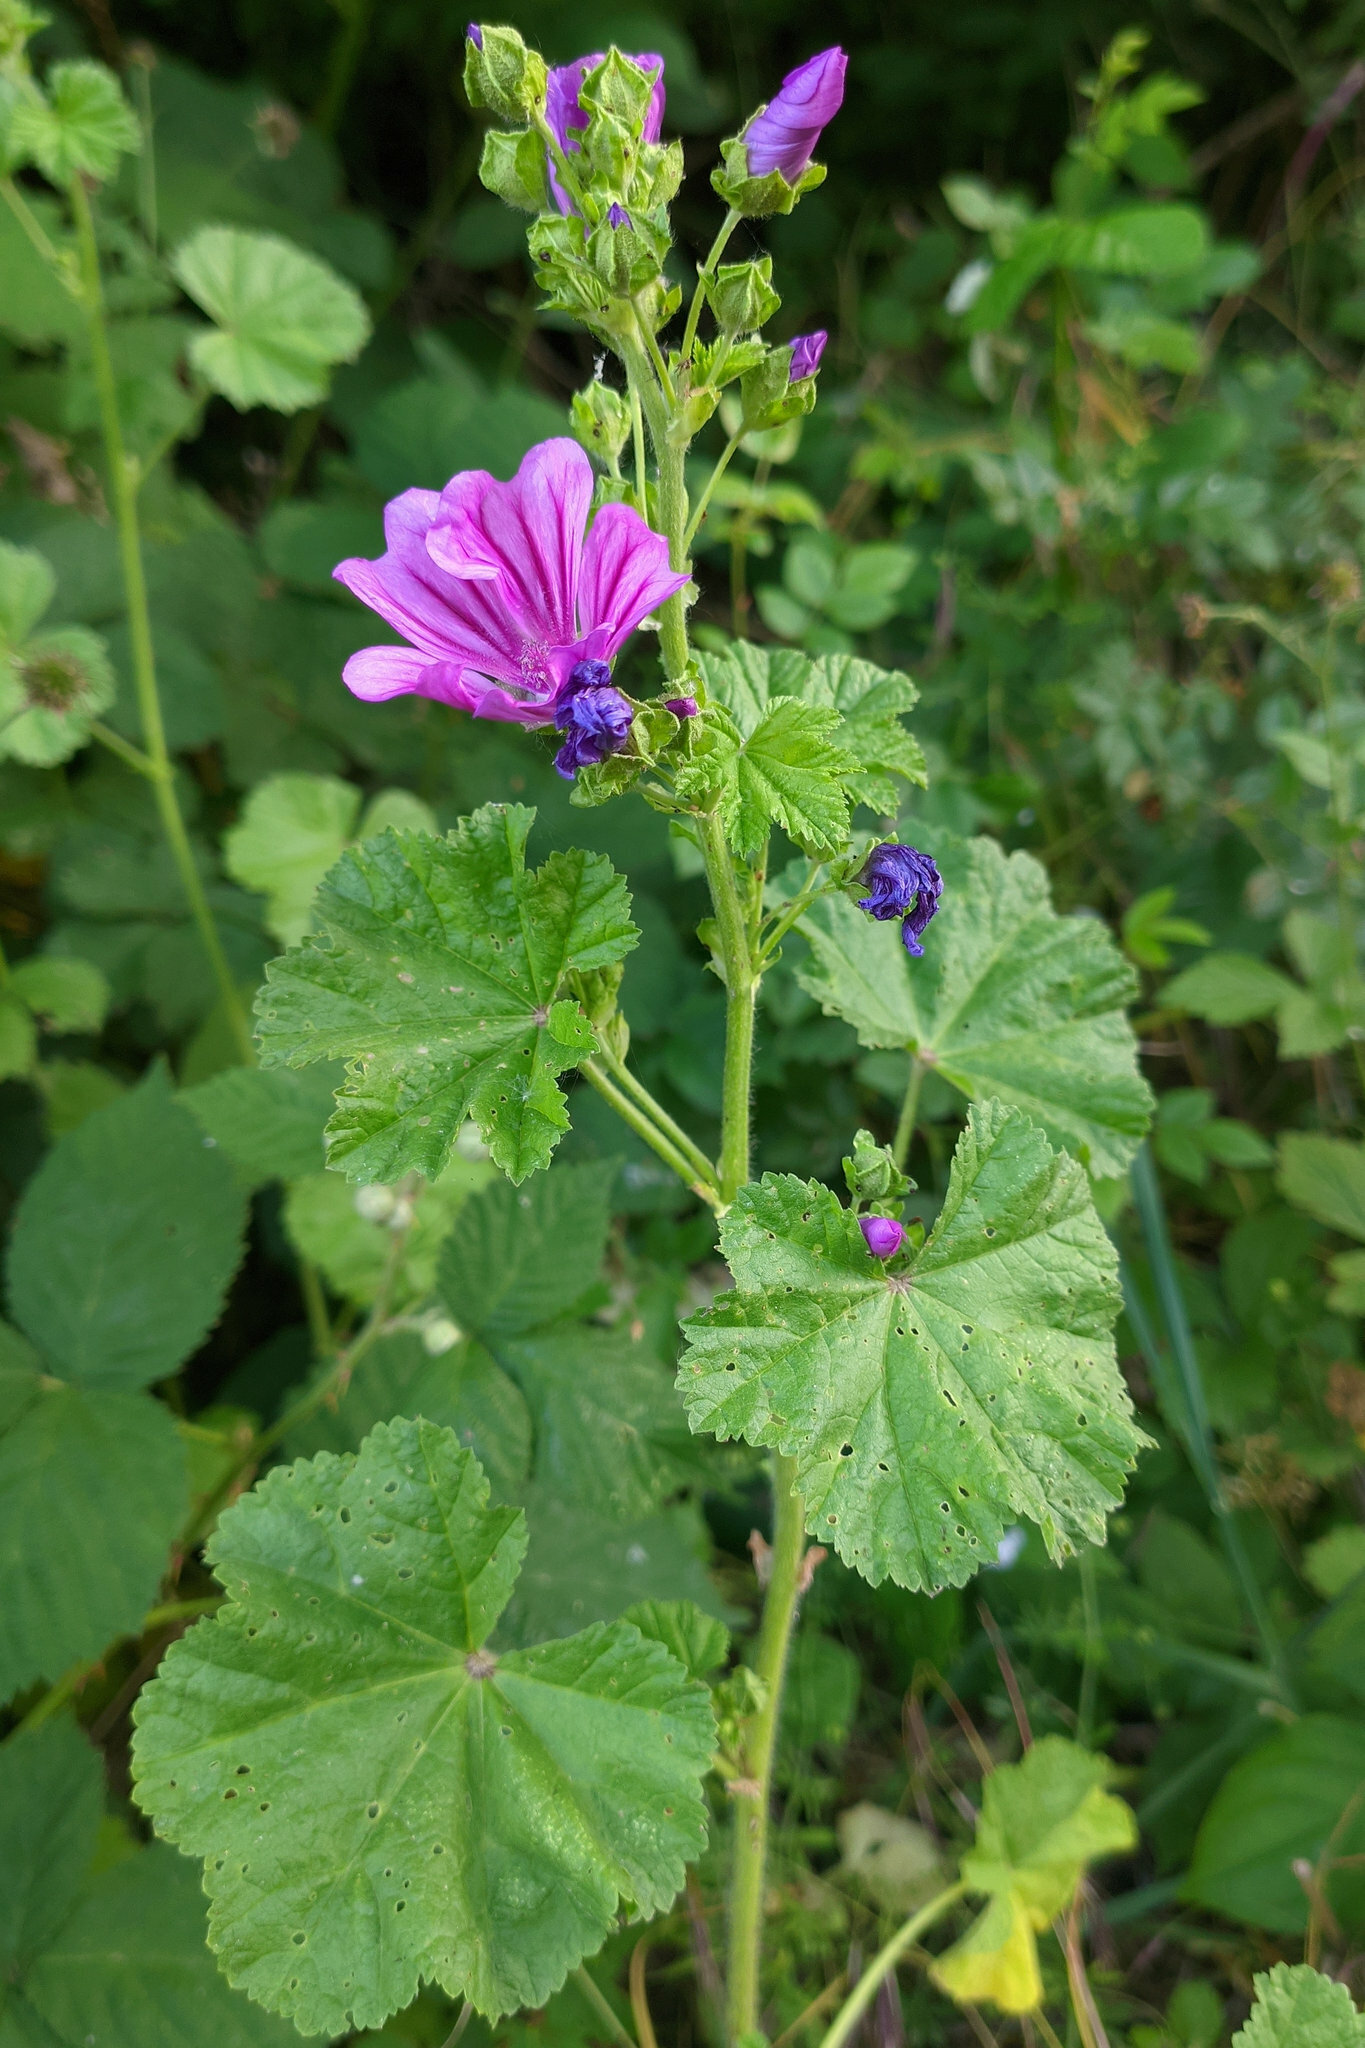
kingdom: Plantae
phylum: Tracheophyta
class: Magnoliopsida
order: Malvales
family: Malvaceae
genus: Malva
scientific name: Malva sylvestris
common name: Common mallow
